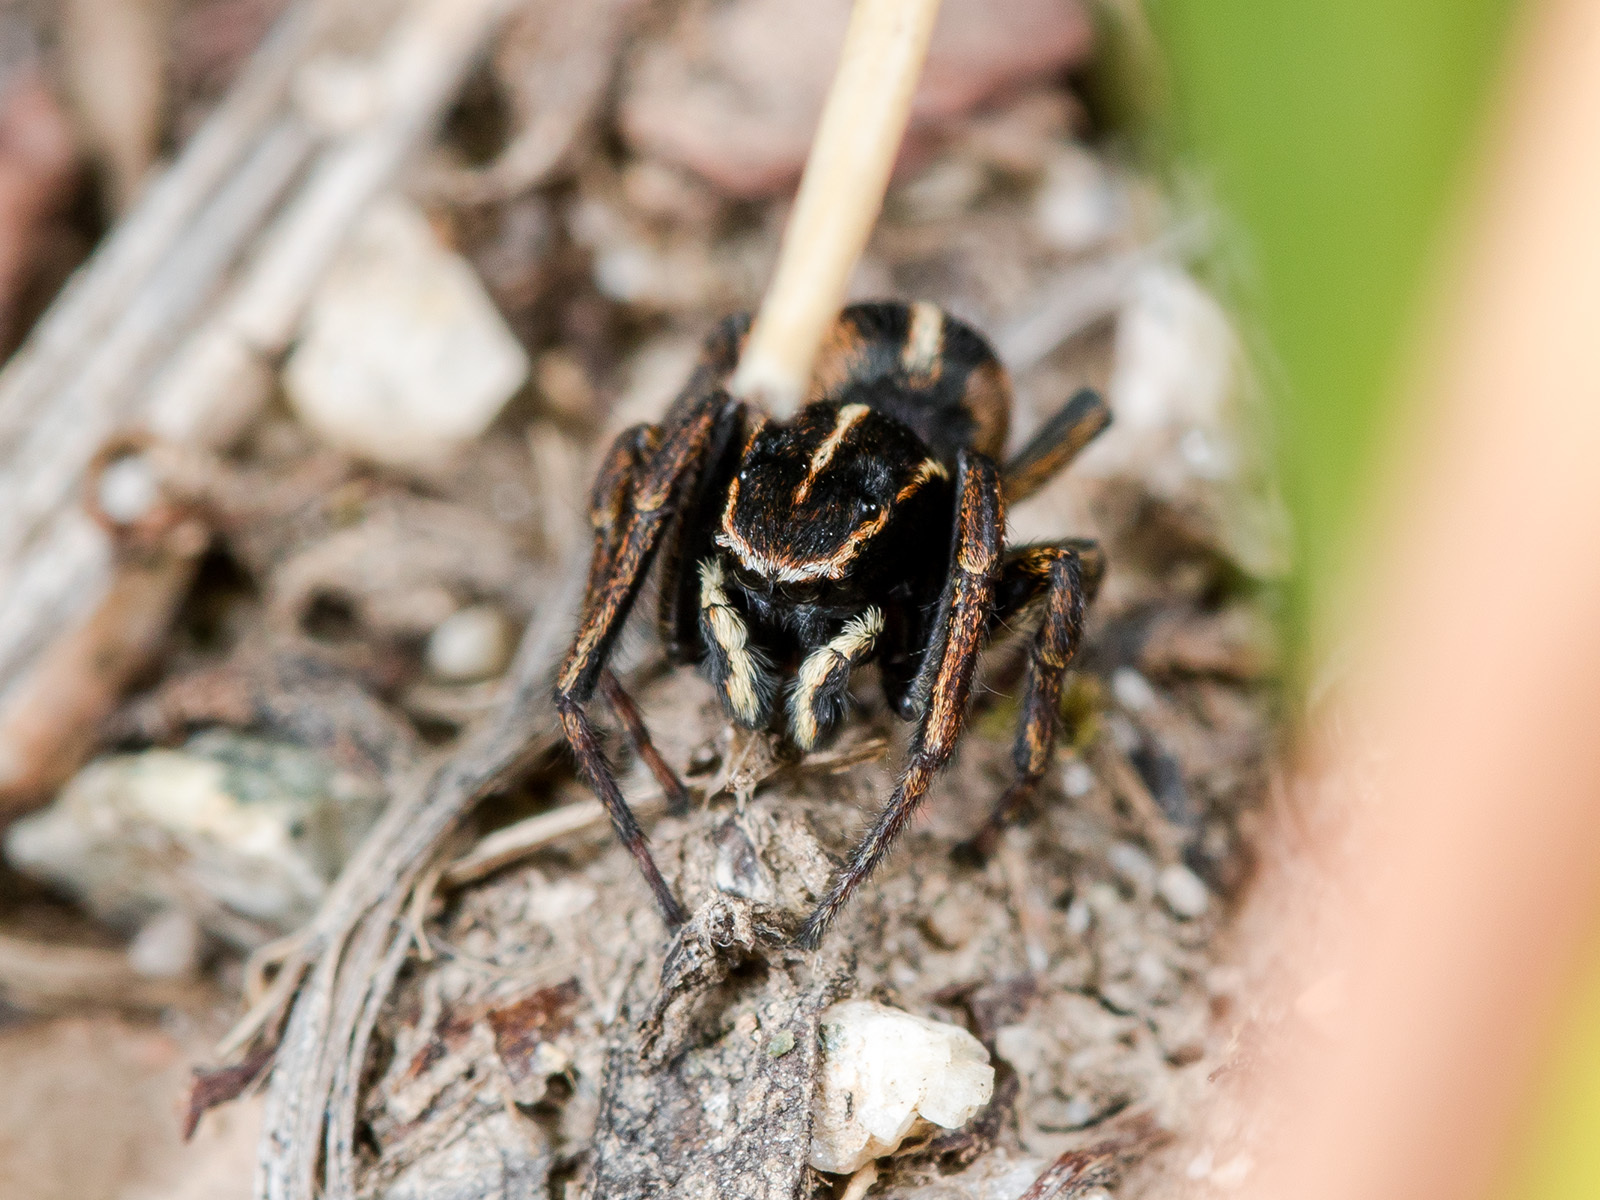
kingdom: Animalia
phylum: Arthropoda
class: Arachnida
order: Araneae
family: Salticidae
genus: Attulus
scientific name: Attulus talgarensis
